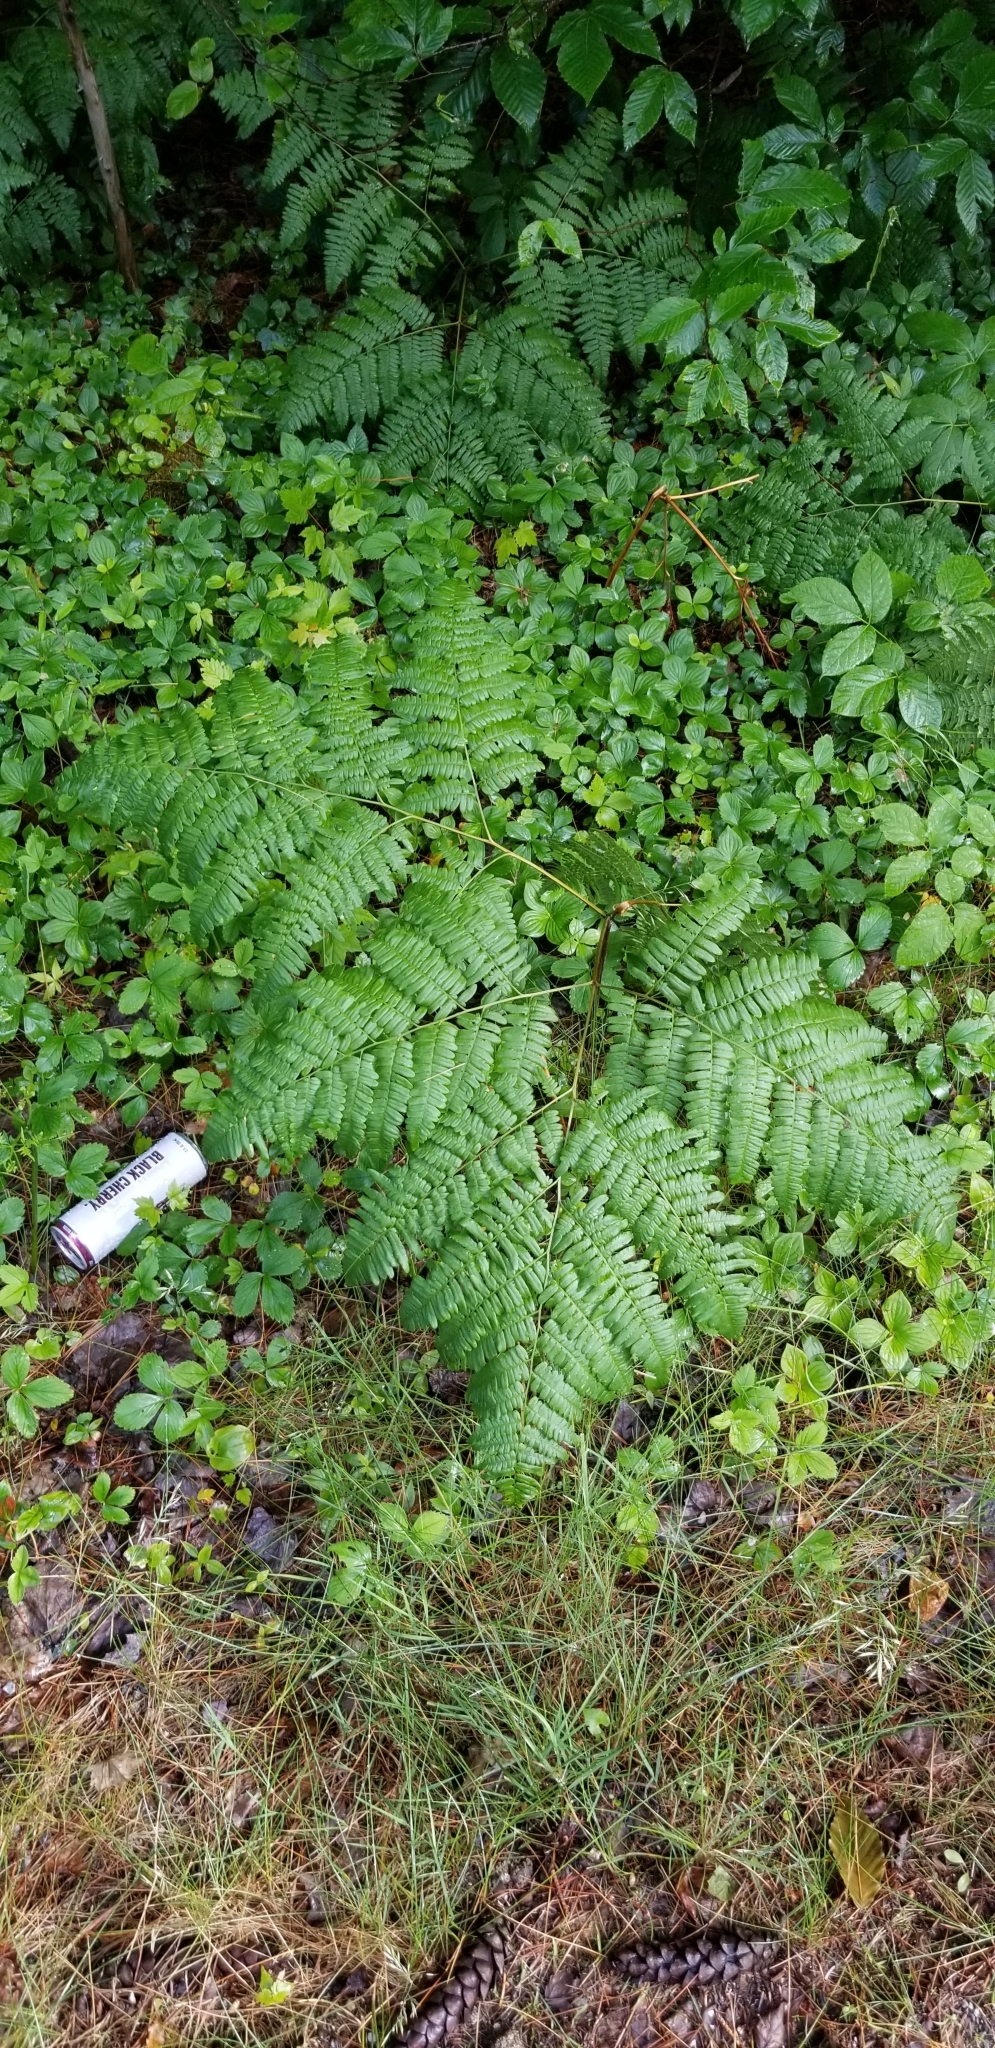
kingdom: Plantae
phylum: Tracheophyta
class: Polypodiopsida
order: Polypodiales
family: Dennstaedtiaceae
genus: Pteridium
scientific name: Pteridium aquilinum
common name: Bracken
